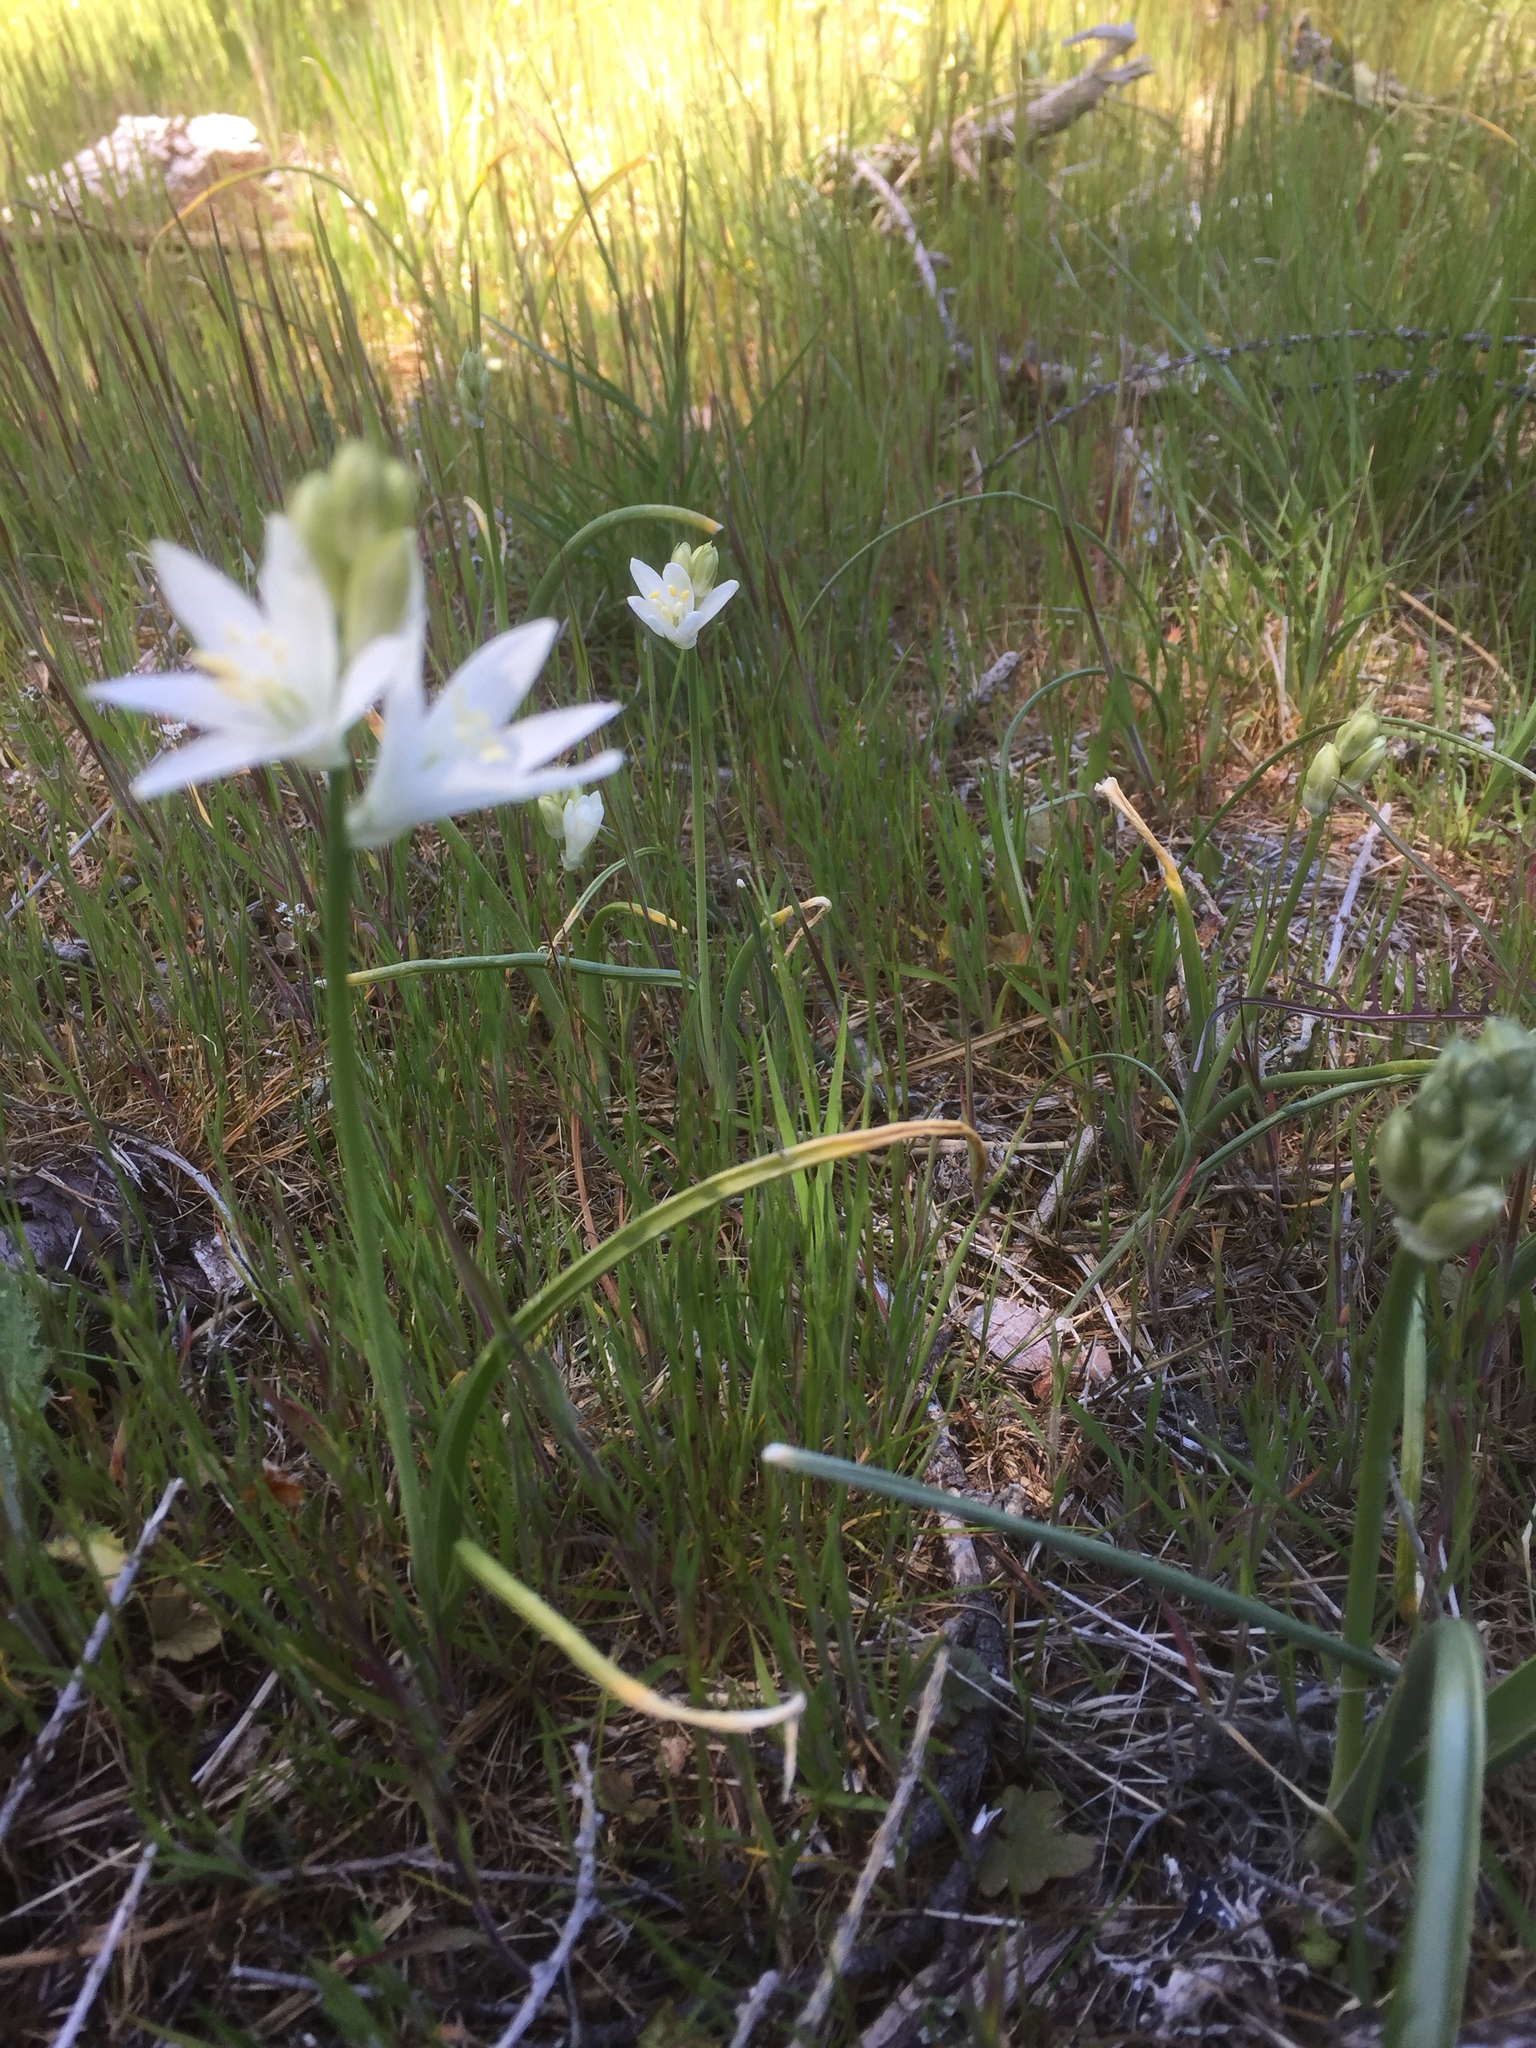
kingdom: Plantae
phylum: Tracheophyta
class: Liliopsida
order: Asparagales
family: Asparagaceae
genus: Ornithogalum
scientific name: Ornithogalum concinnum
